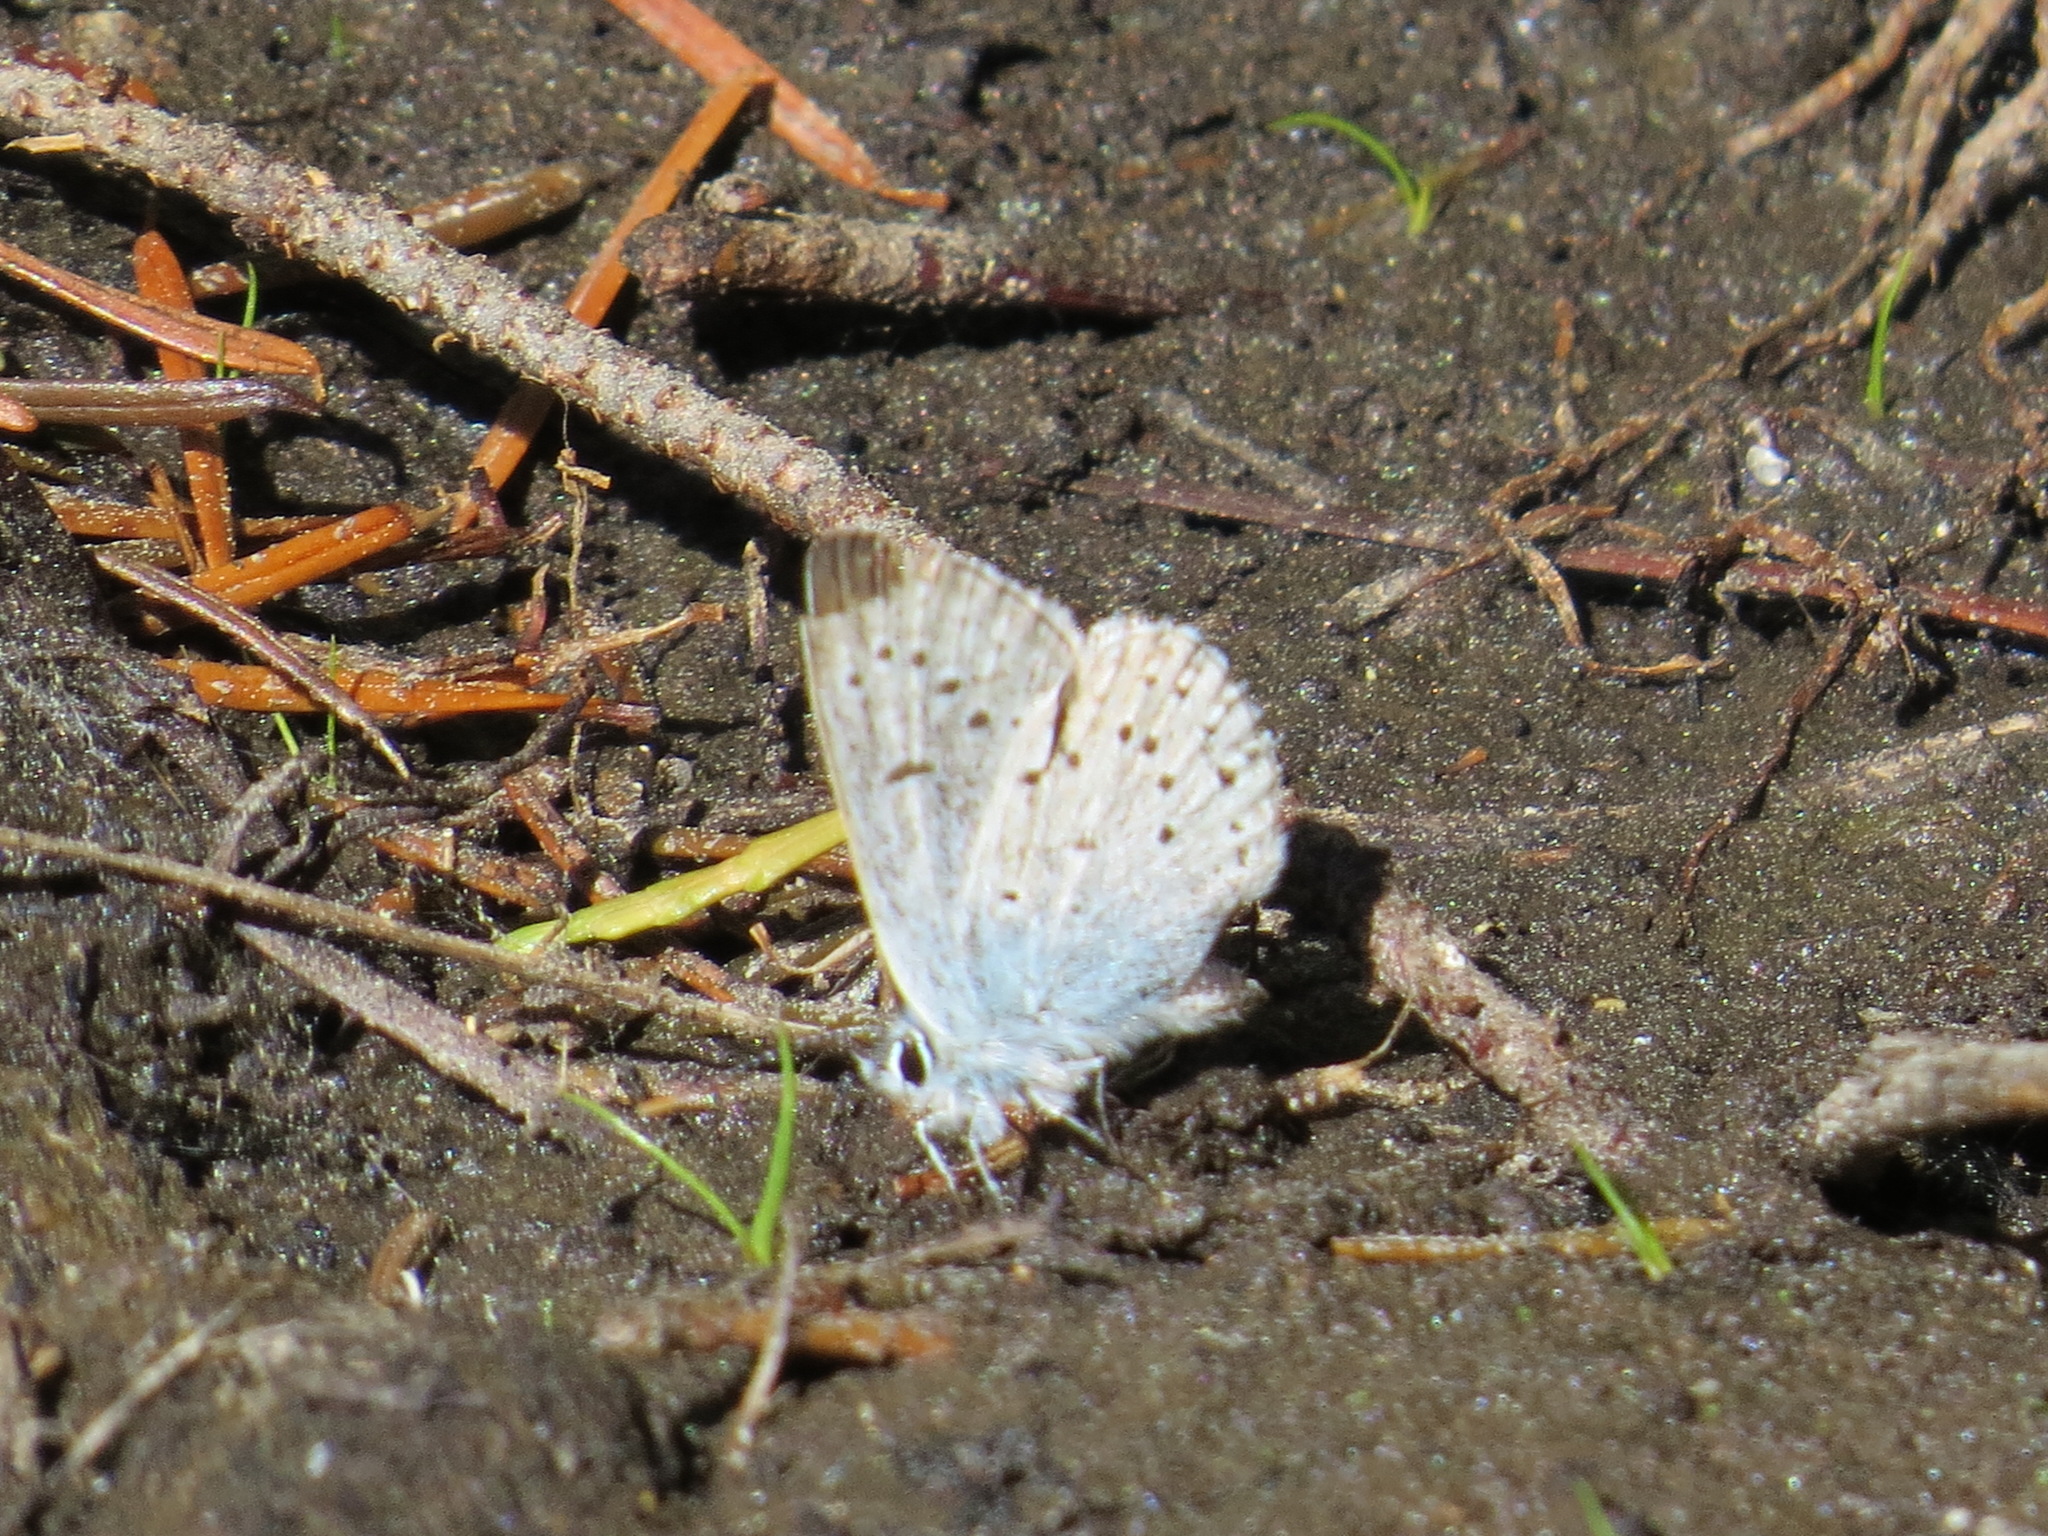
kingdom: Animalia
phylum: Arthropoda
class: Insecta
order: Lepidoptera
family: Lycaenidae
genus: Icaricia
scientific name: Icaricia saepiolus
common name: Greenish blue
